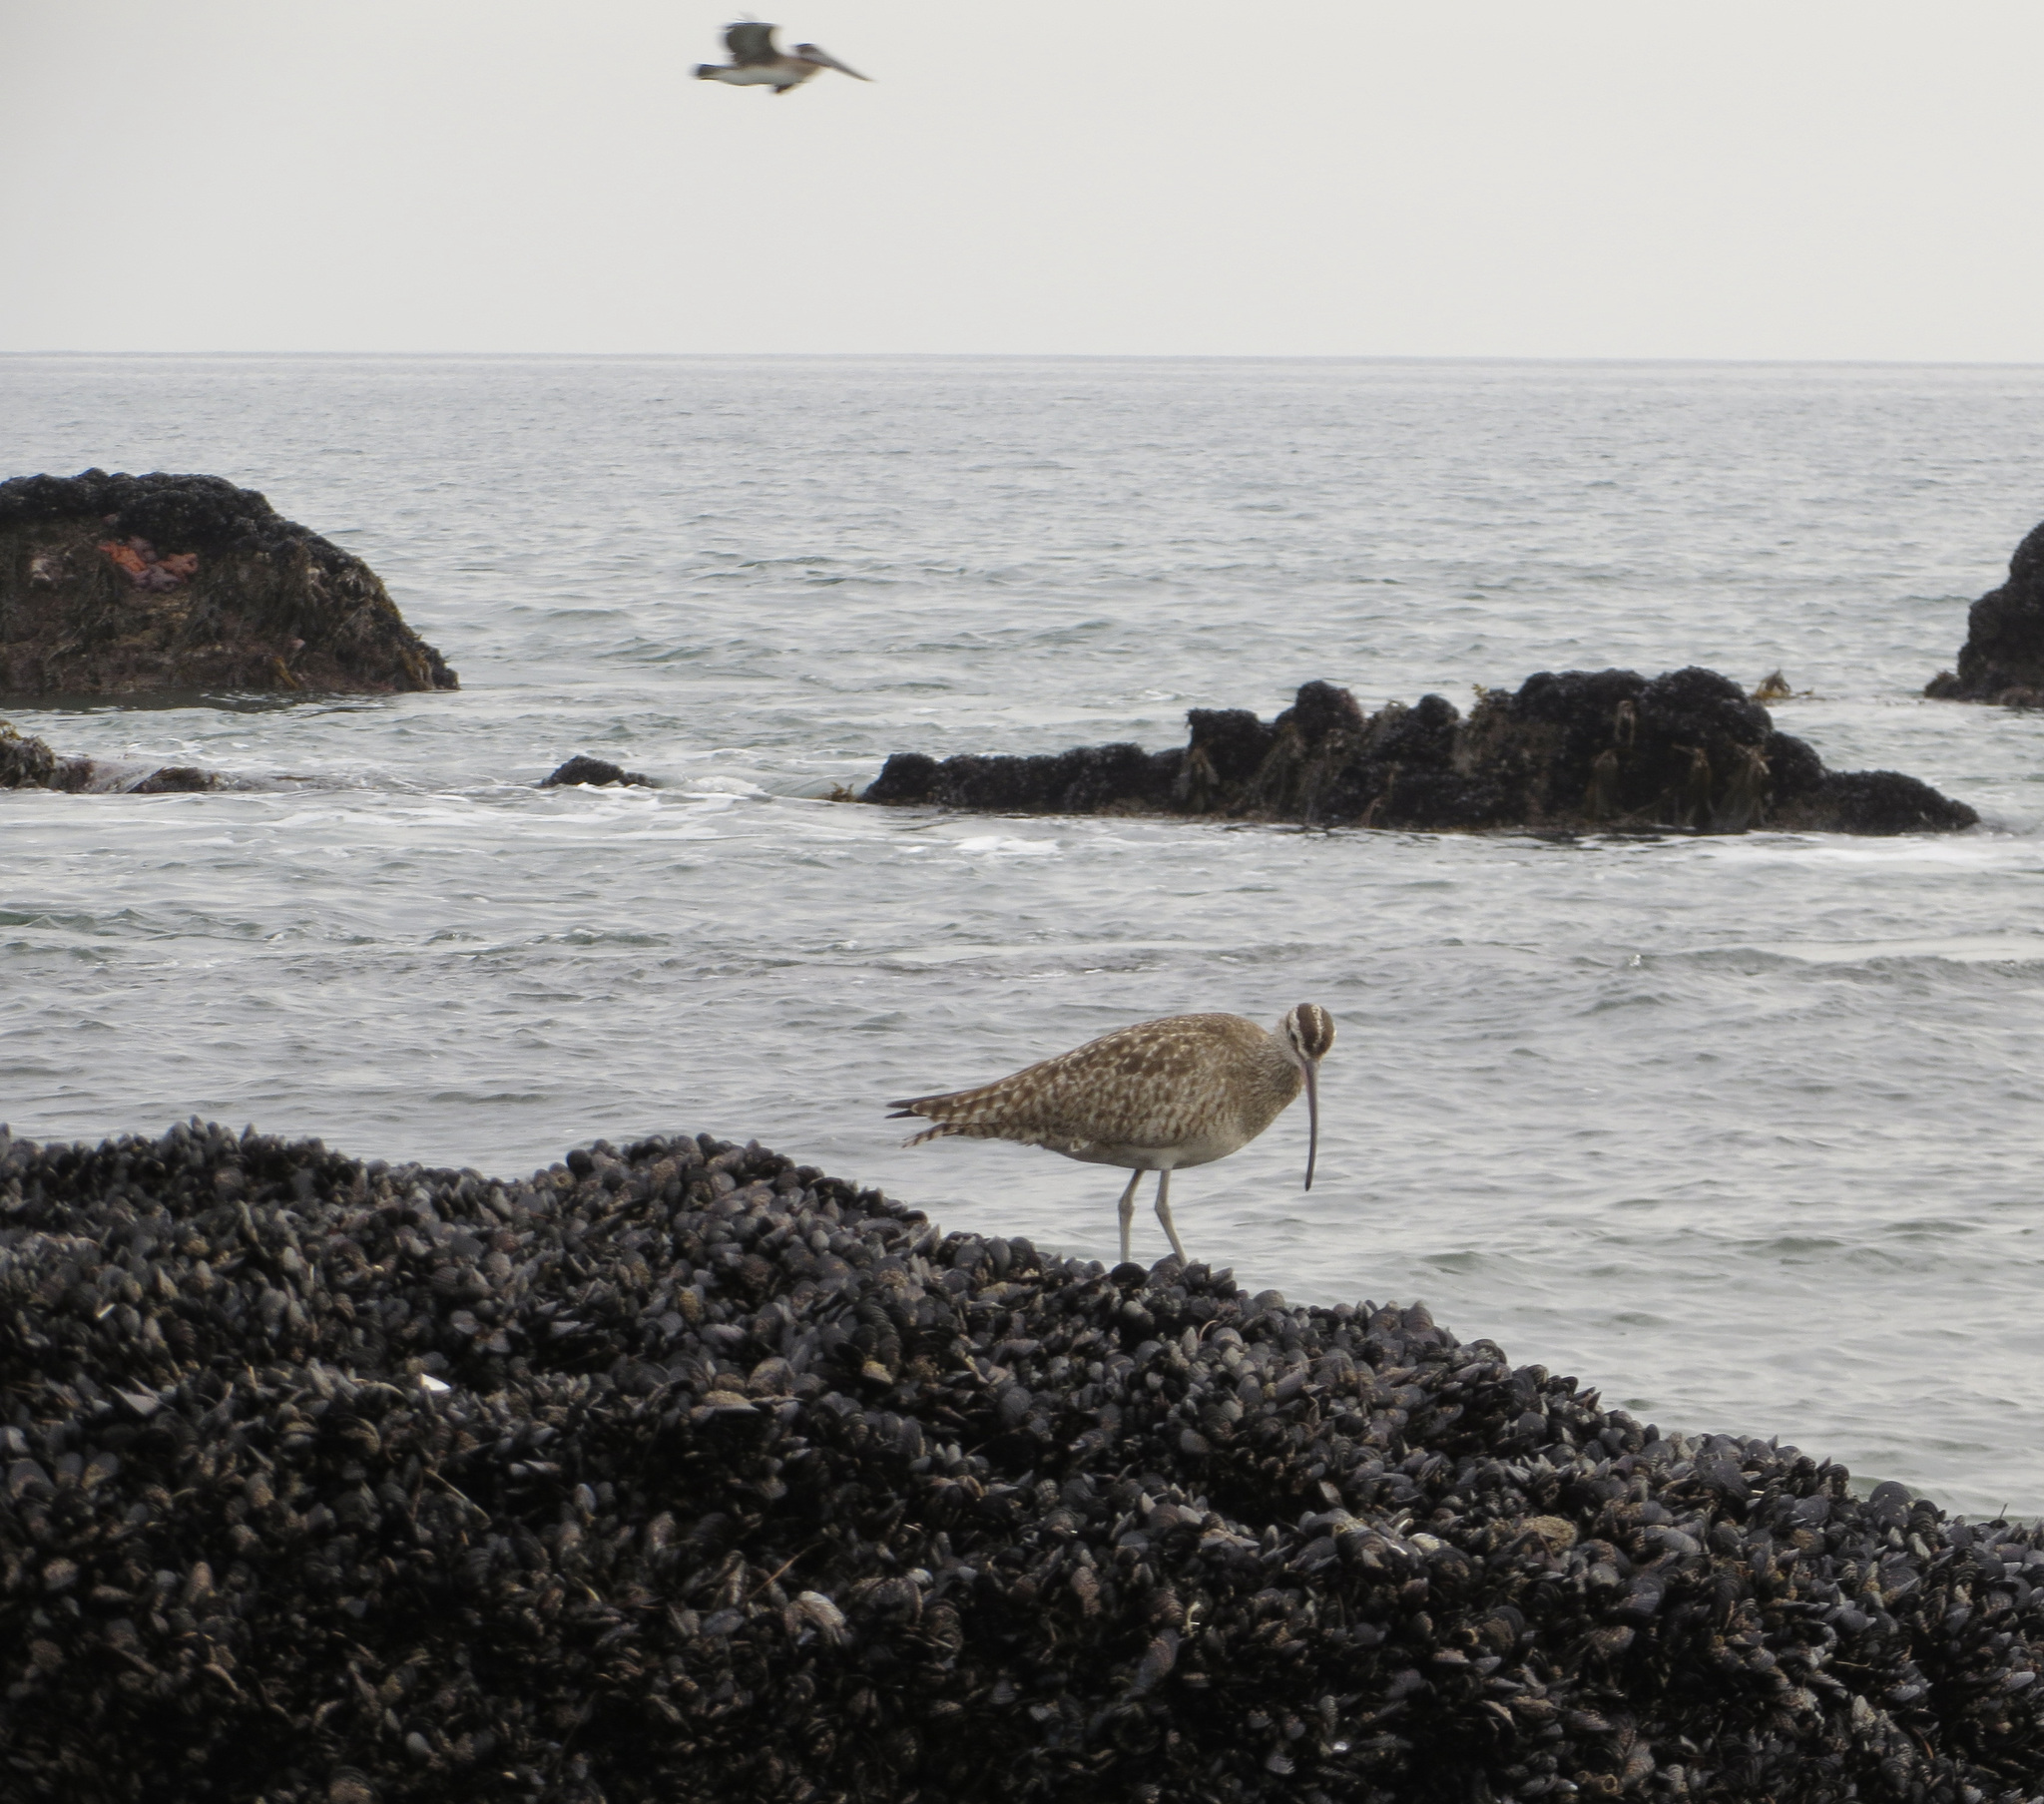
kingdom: Animalia
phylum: Chordata
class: Aves
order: Charadriiformes
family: Scolopacidae
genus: Numenius
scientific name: Numenius phaeopus
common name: Whimbrel
